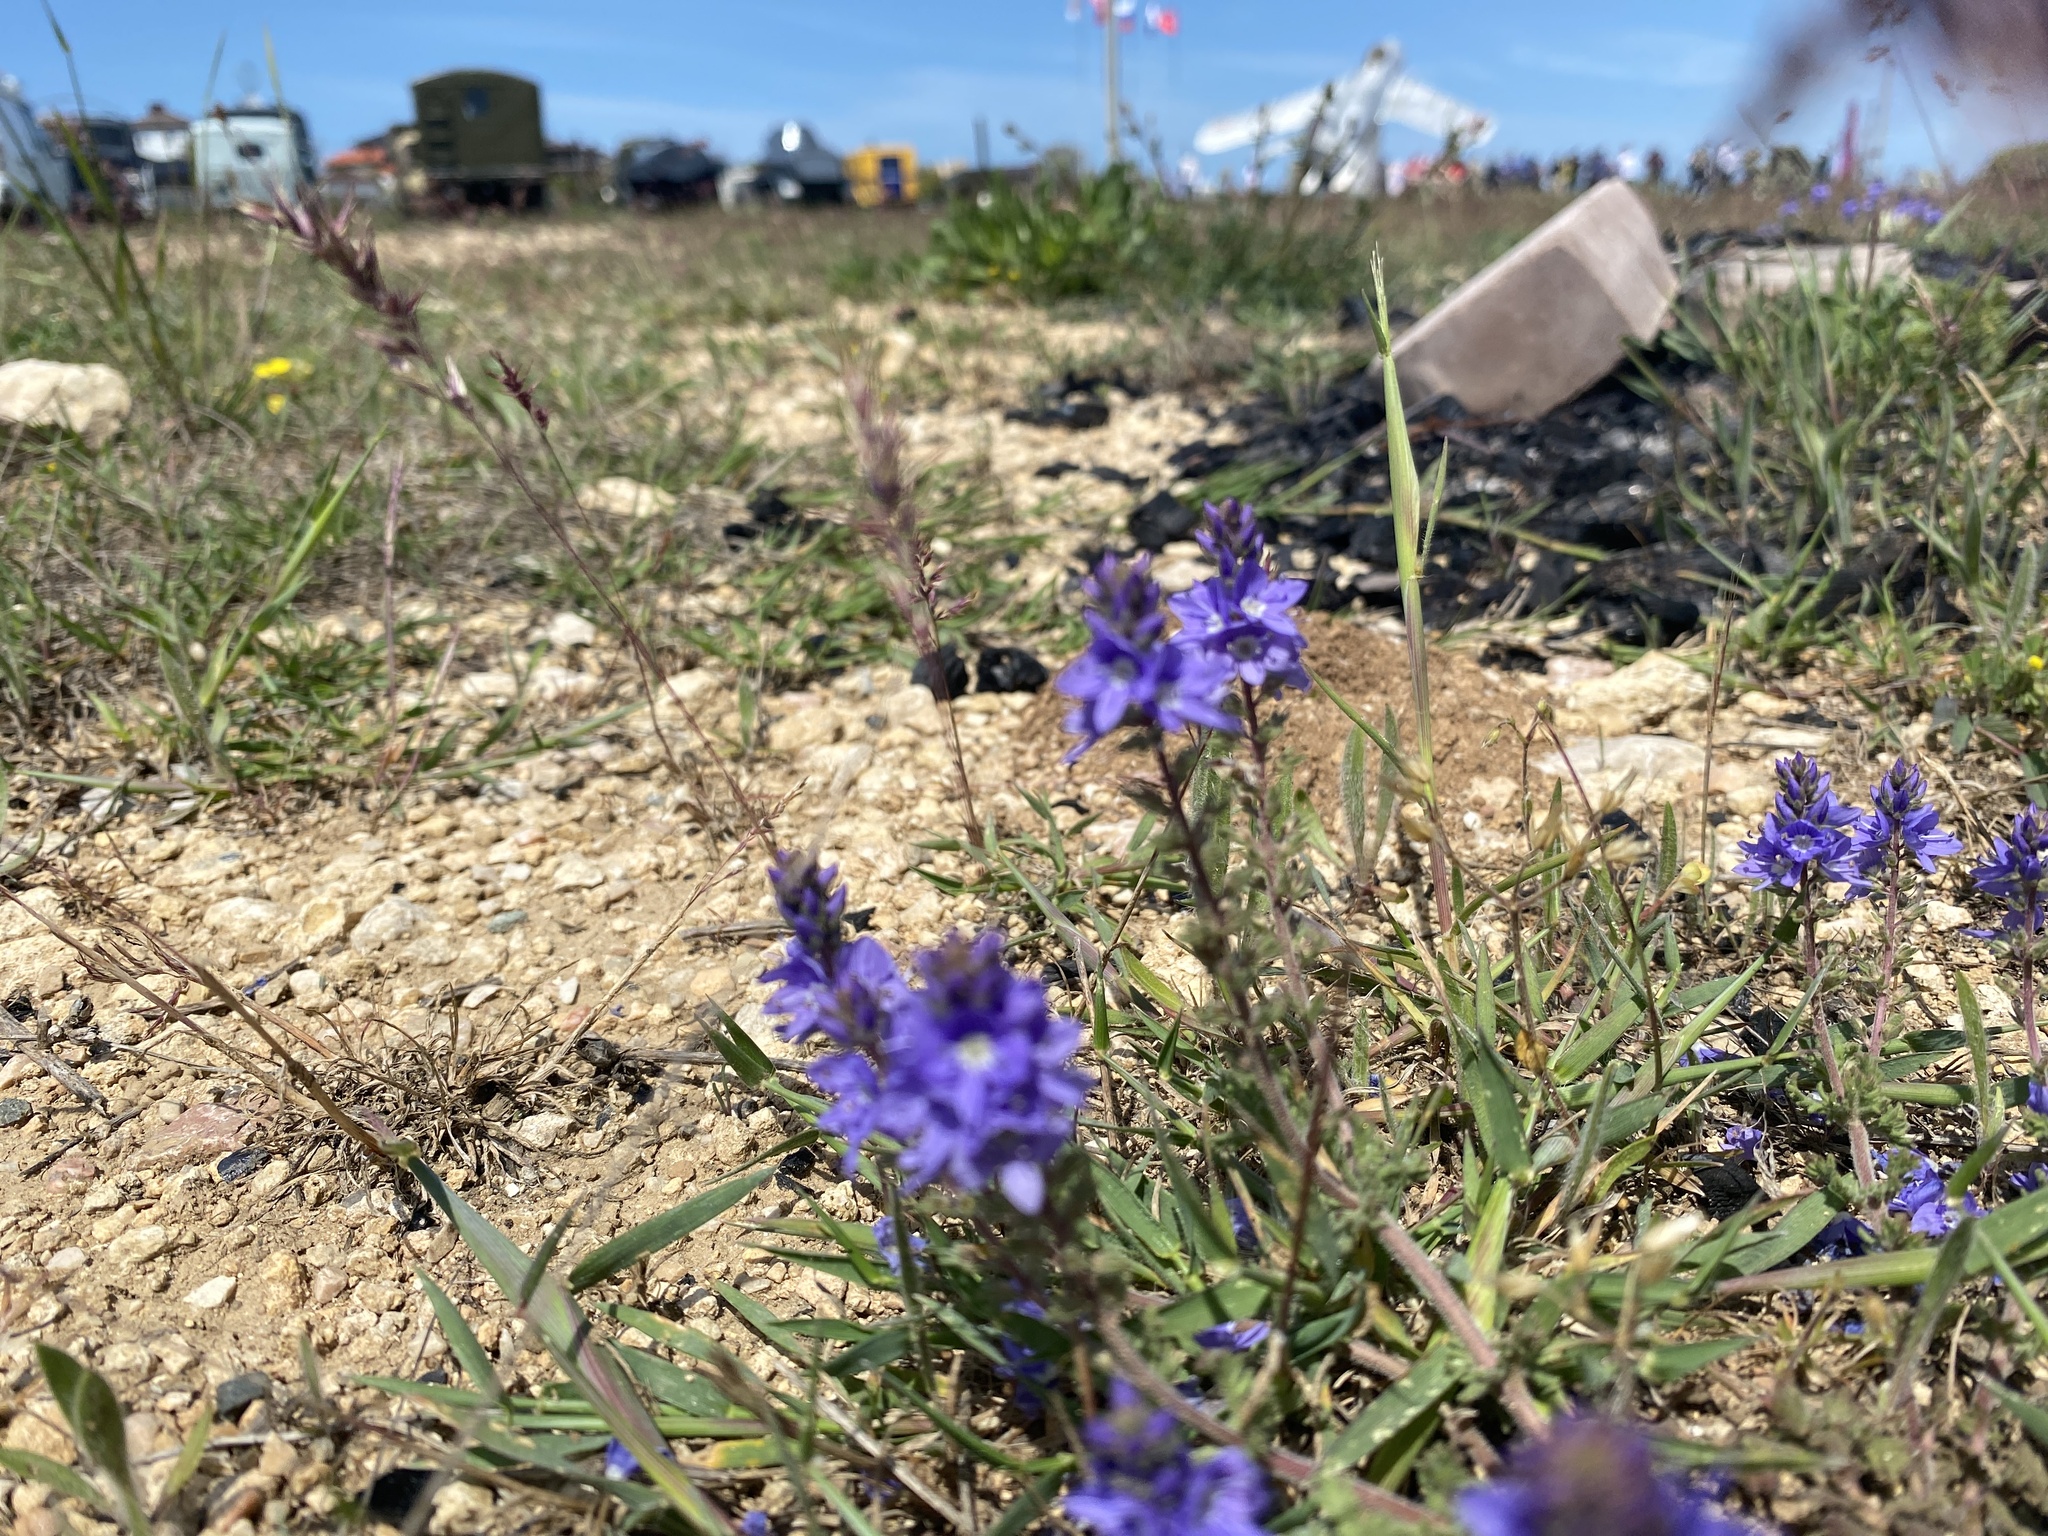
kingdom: Plantae
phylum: Tracheophyta
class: Magnoliopsida
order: Lamiales
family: Plantaginaceae
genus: Veronica
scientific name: Veronica capsellicarpa
